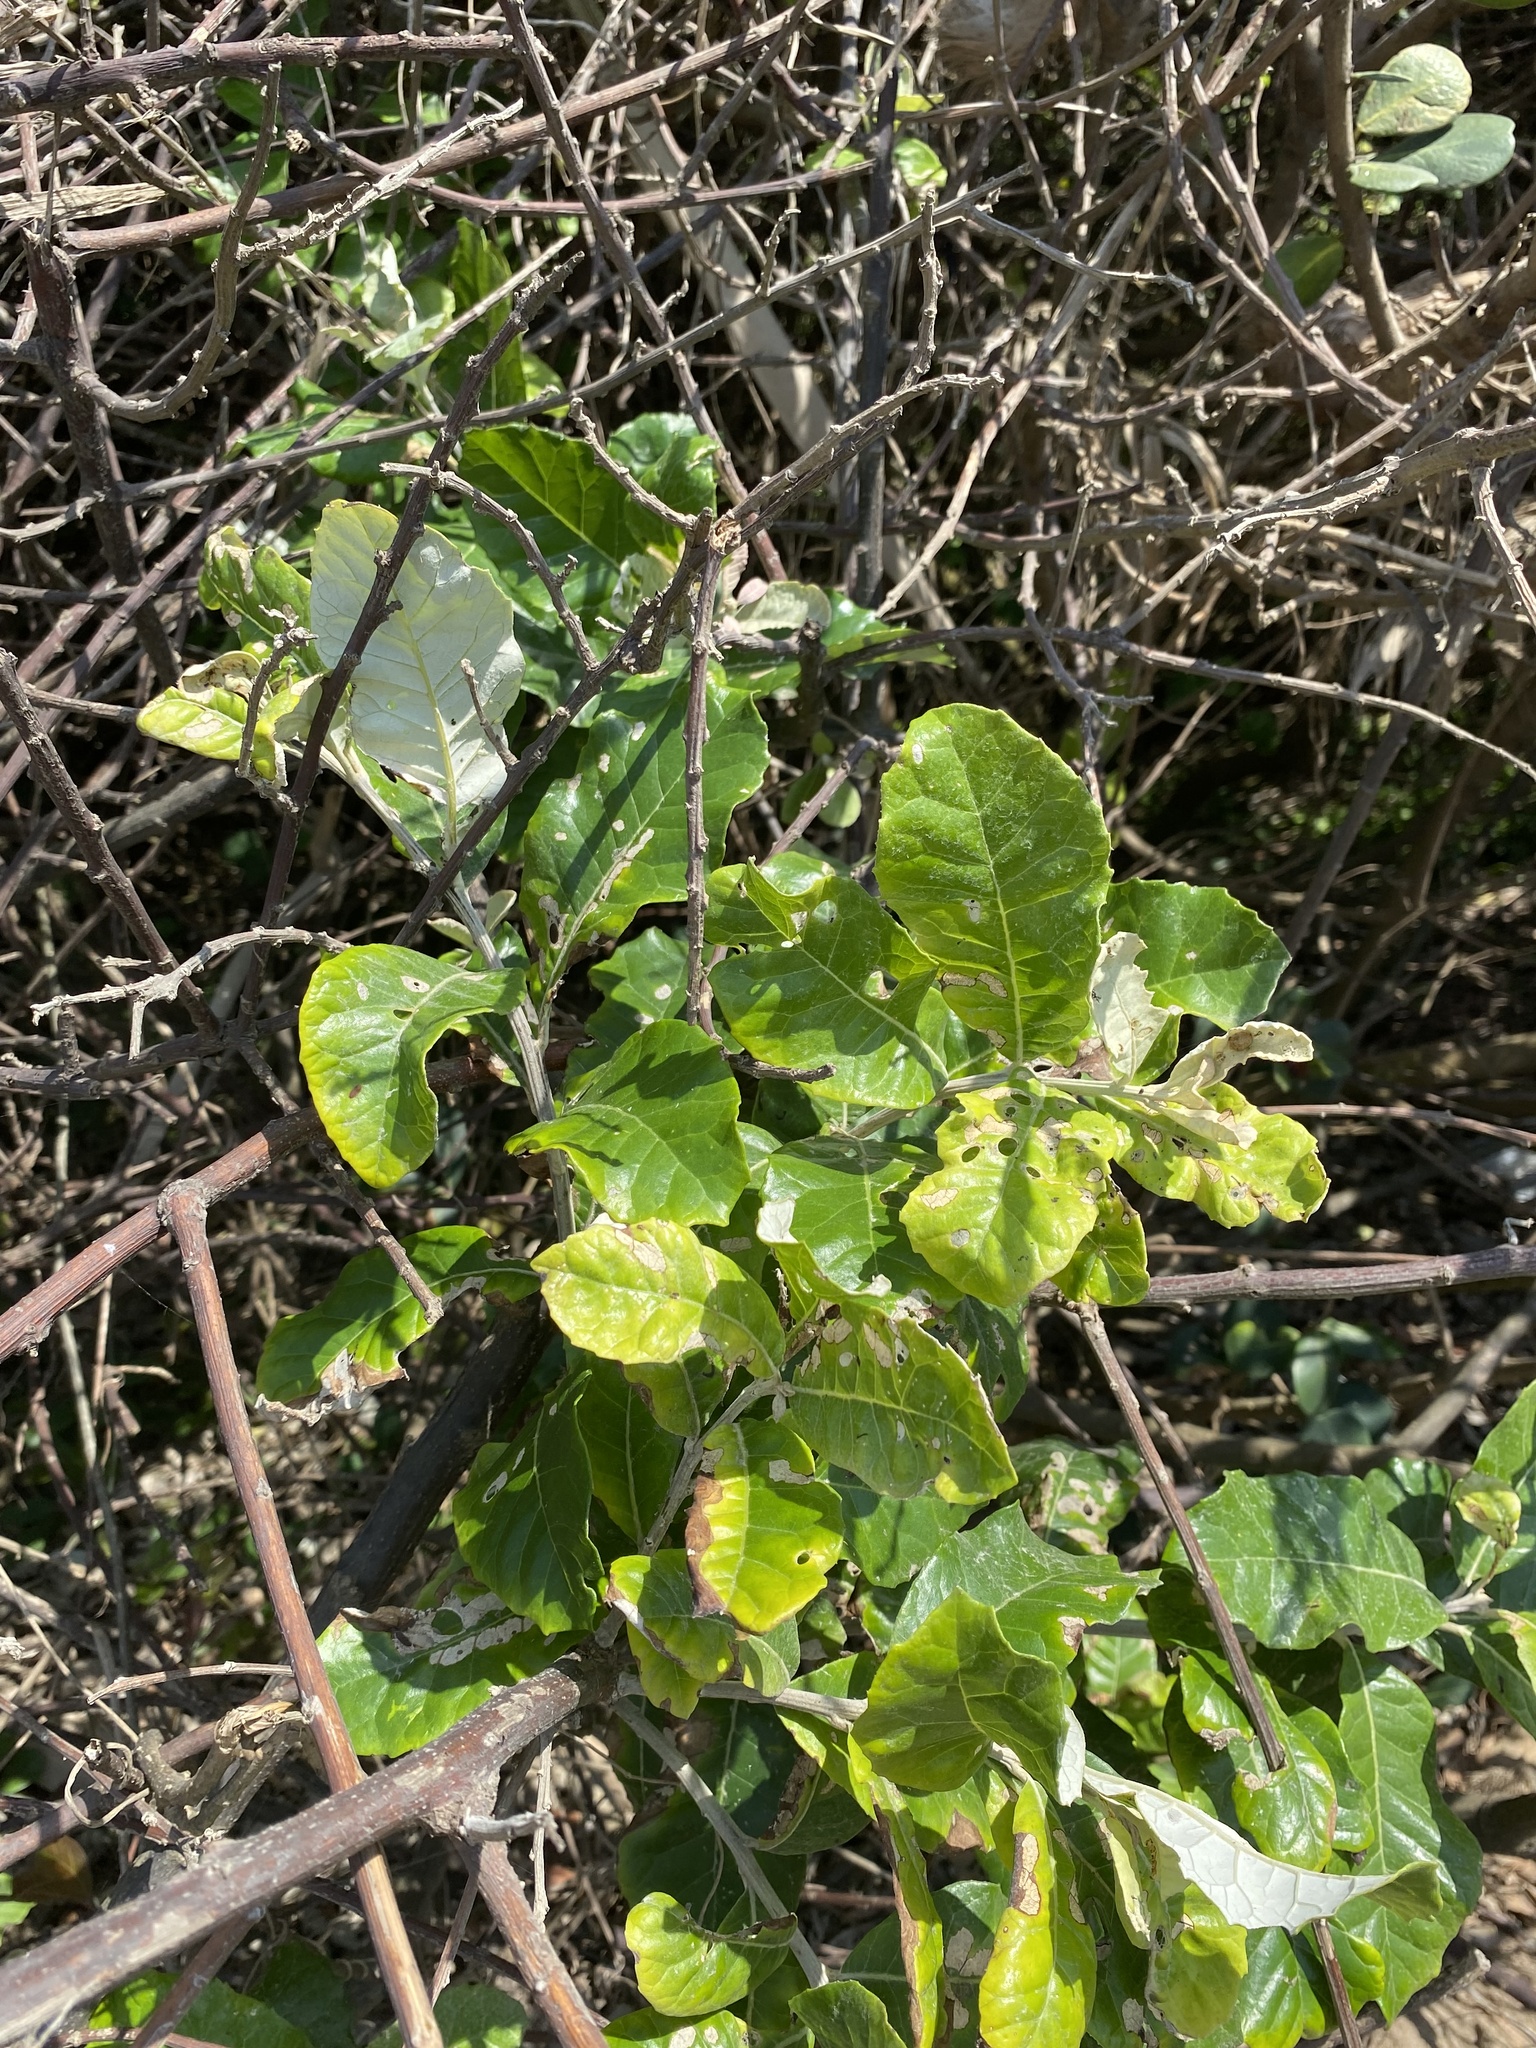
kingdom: Plantae
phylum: Tracheophyta
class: Magnoliopsida
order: Asterales
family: Asteraceae
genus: Brachylaena
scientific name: Brachylaena discolor
